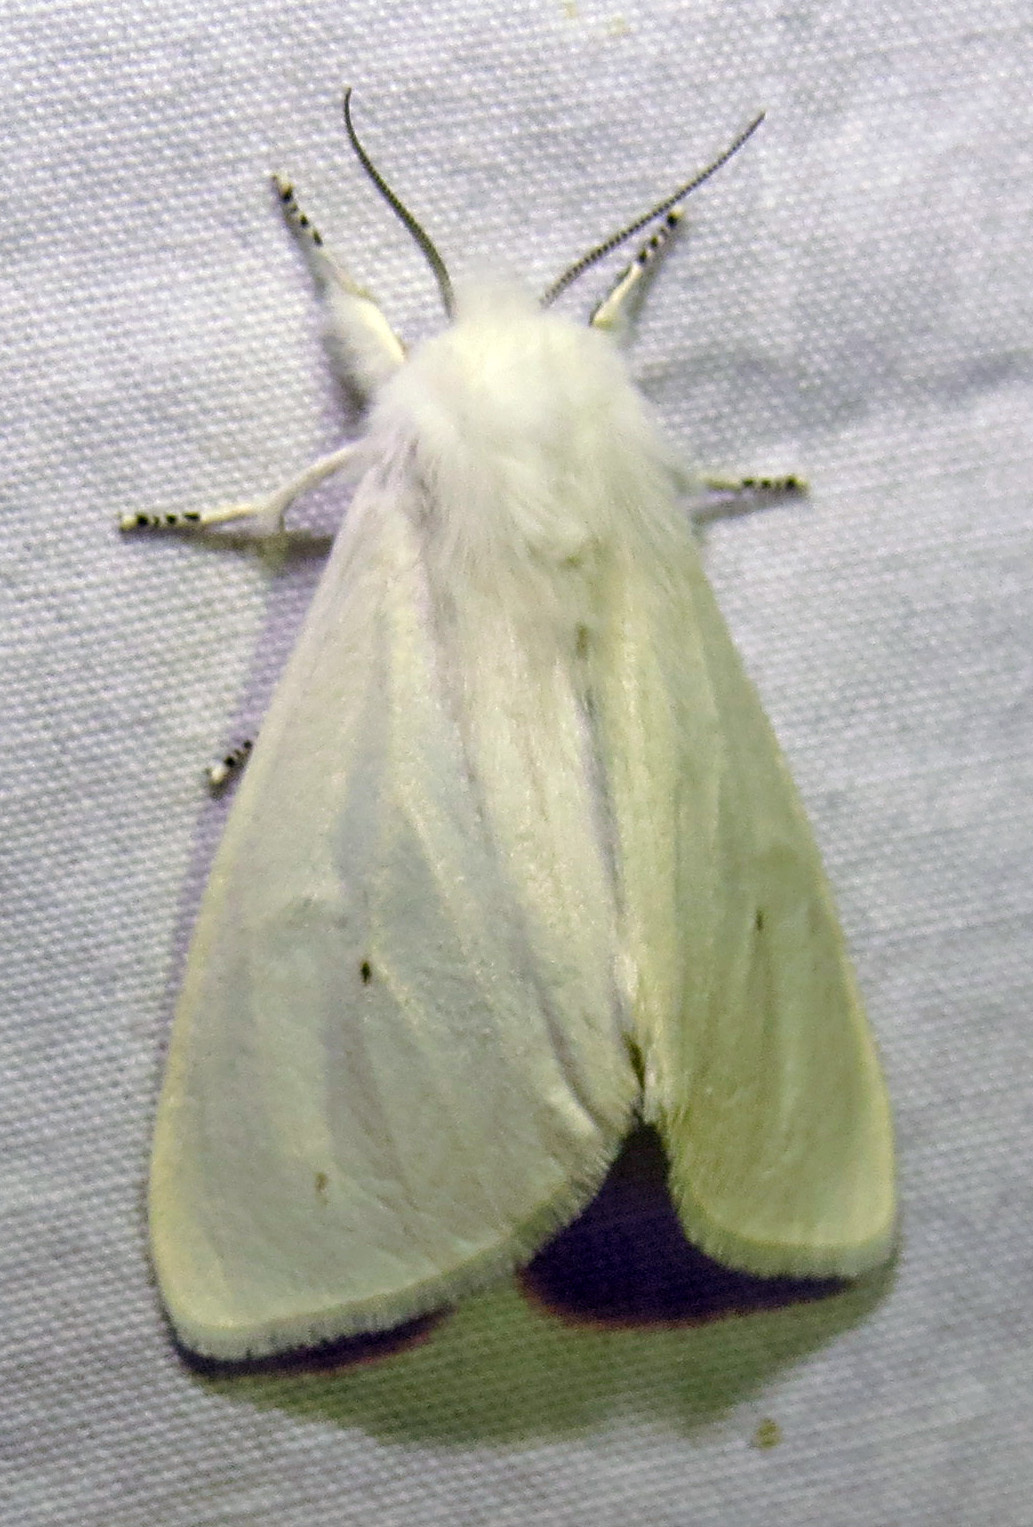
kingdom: Animalia
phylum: Arthropoda
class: Insecta
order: Lepidoptera
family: Erebidae
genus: Spilosoma
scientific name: Spilosoma virginica
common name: Virginia tiger moth
